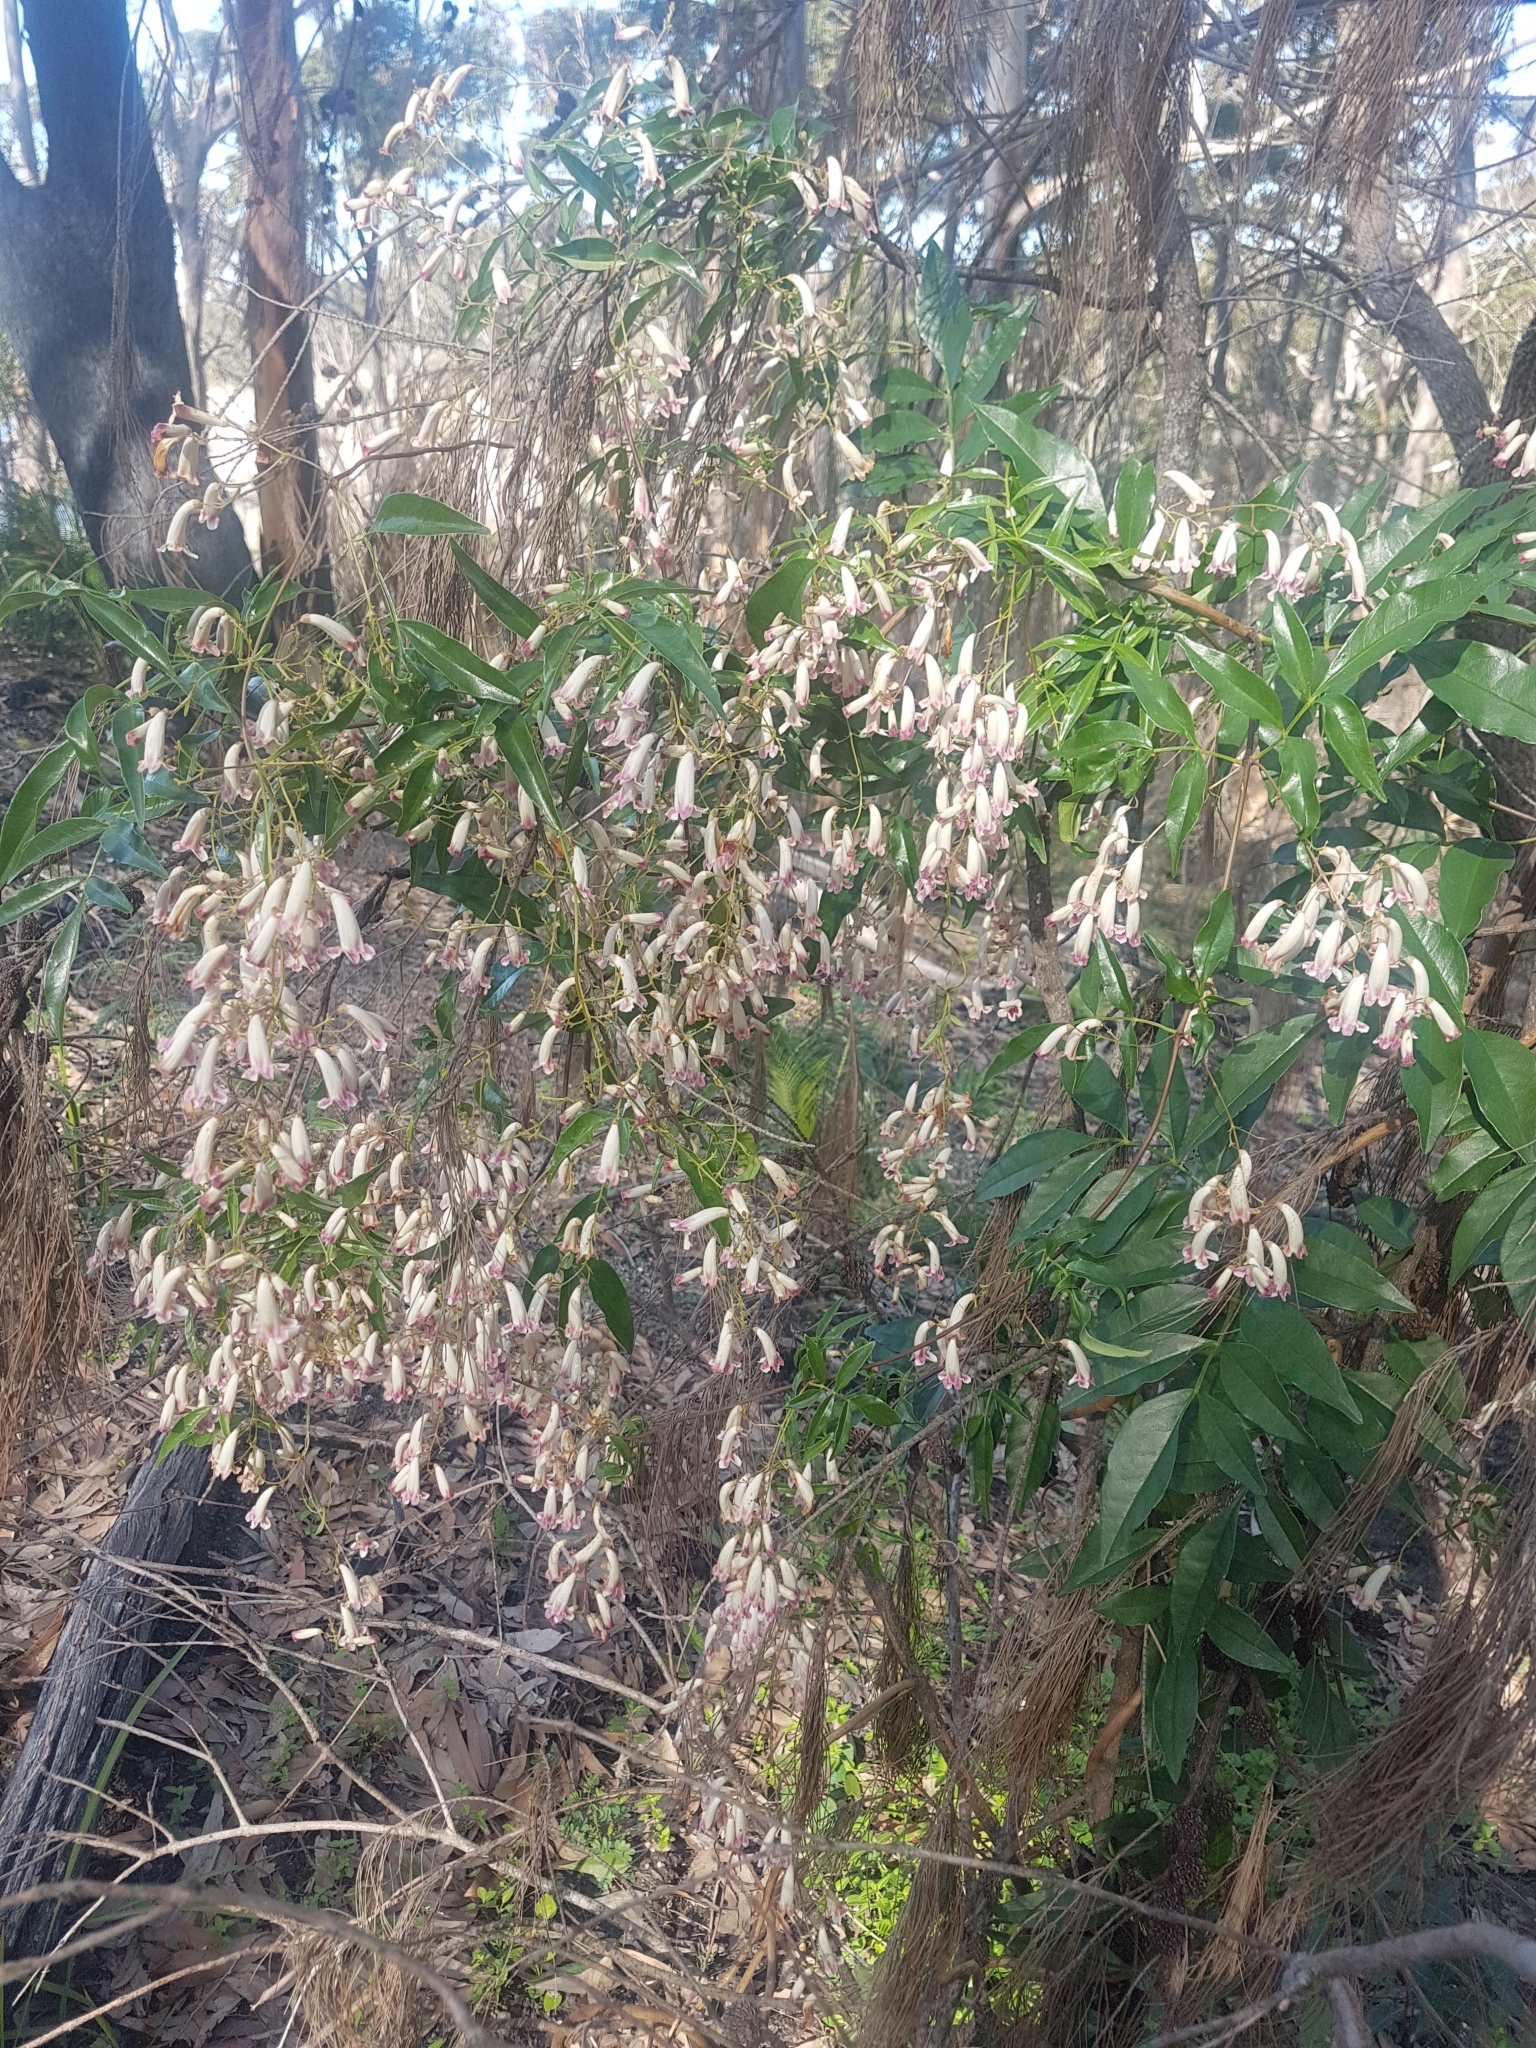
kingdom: Plantae
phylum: Tracheophyta
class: Magnoliopsida
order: Lamiales
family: Bignoniaceae
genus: Pandorea
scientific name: Pandorea pandorana
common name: Wonga-wonga-vine
